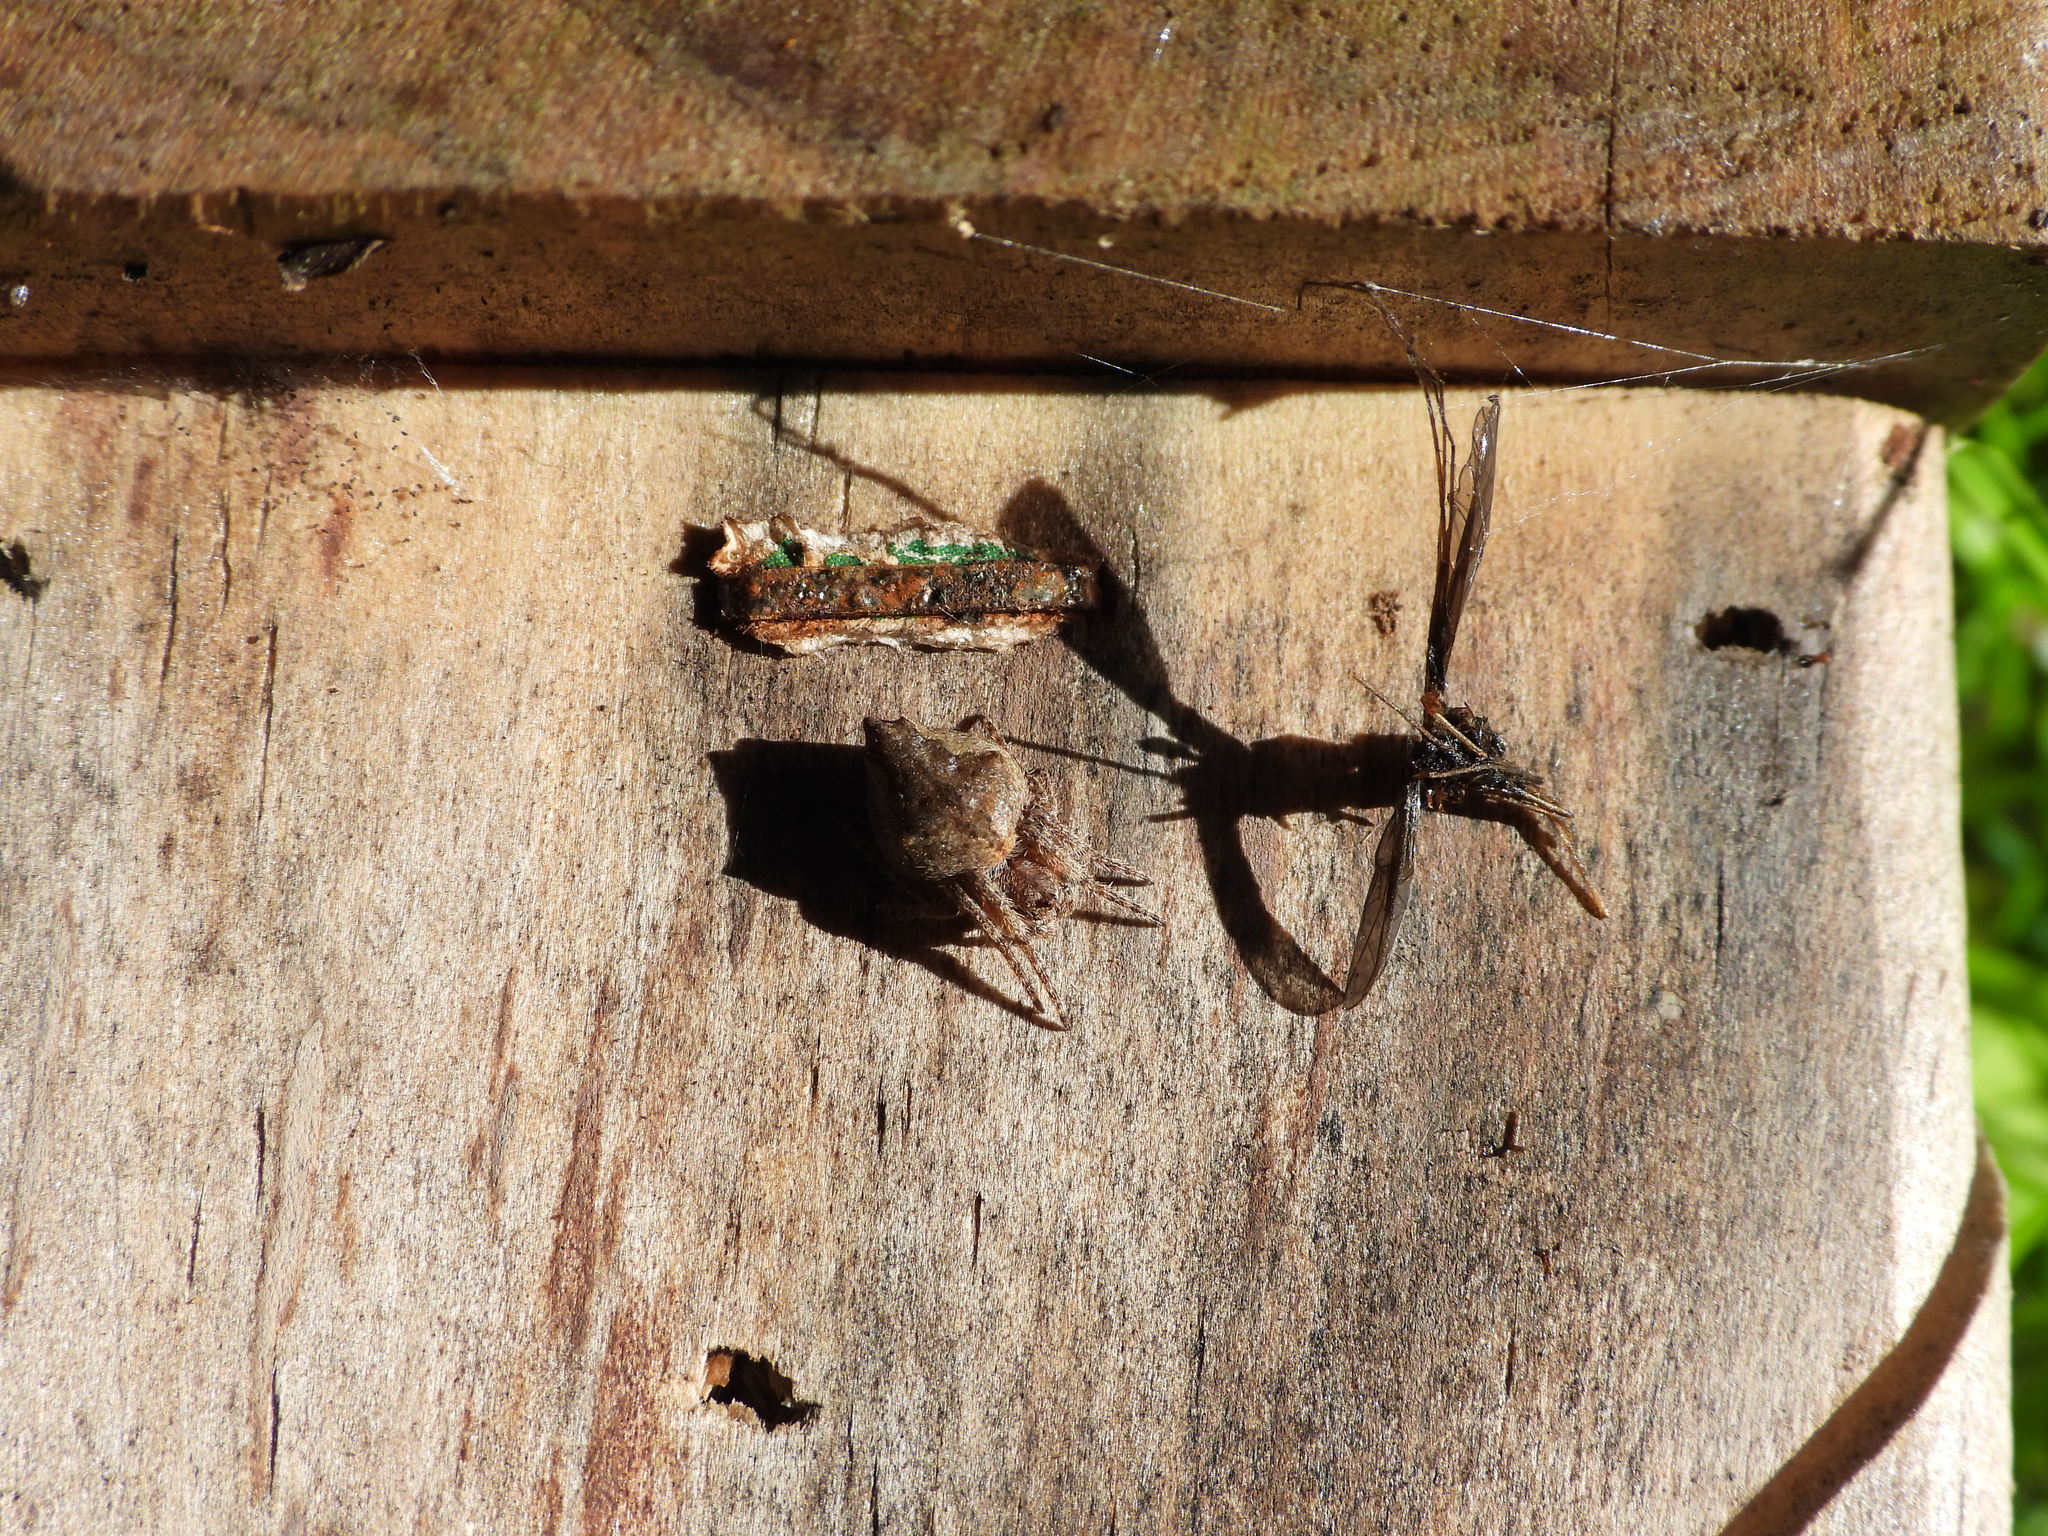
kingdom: Animalia
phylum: Arthropoda
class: Arachnida
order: Araneae
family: Araneidae
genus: Eriophora
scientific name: Eriophora pustulosa
